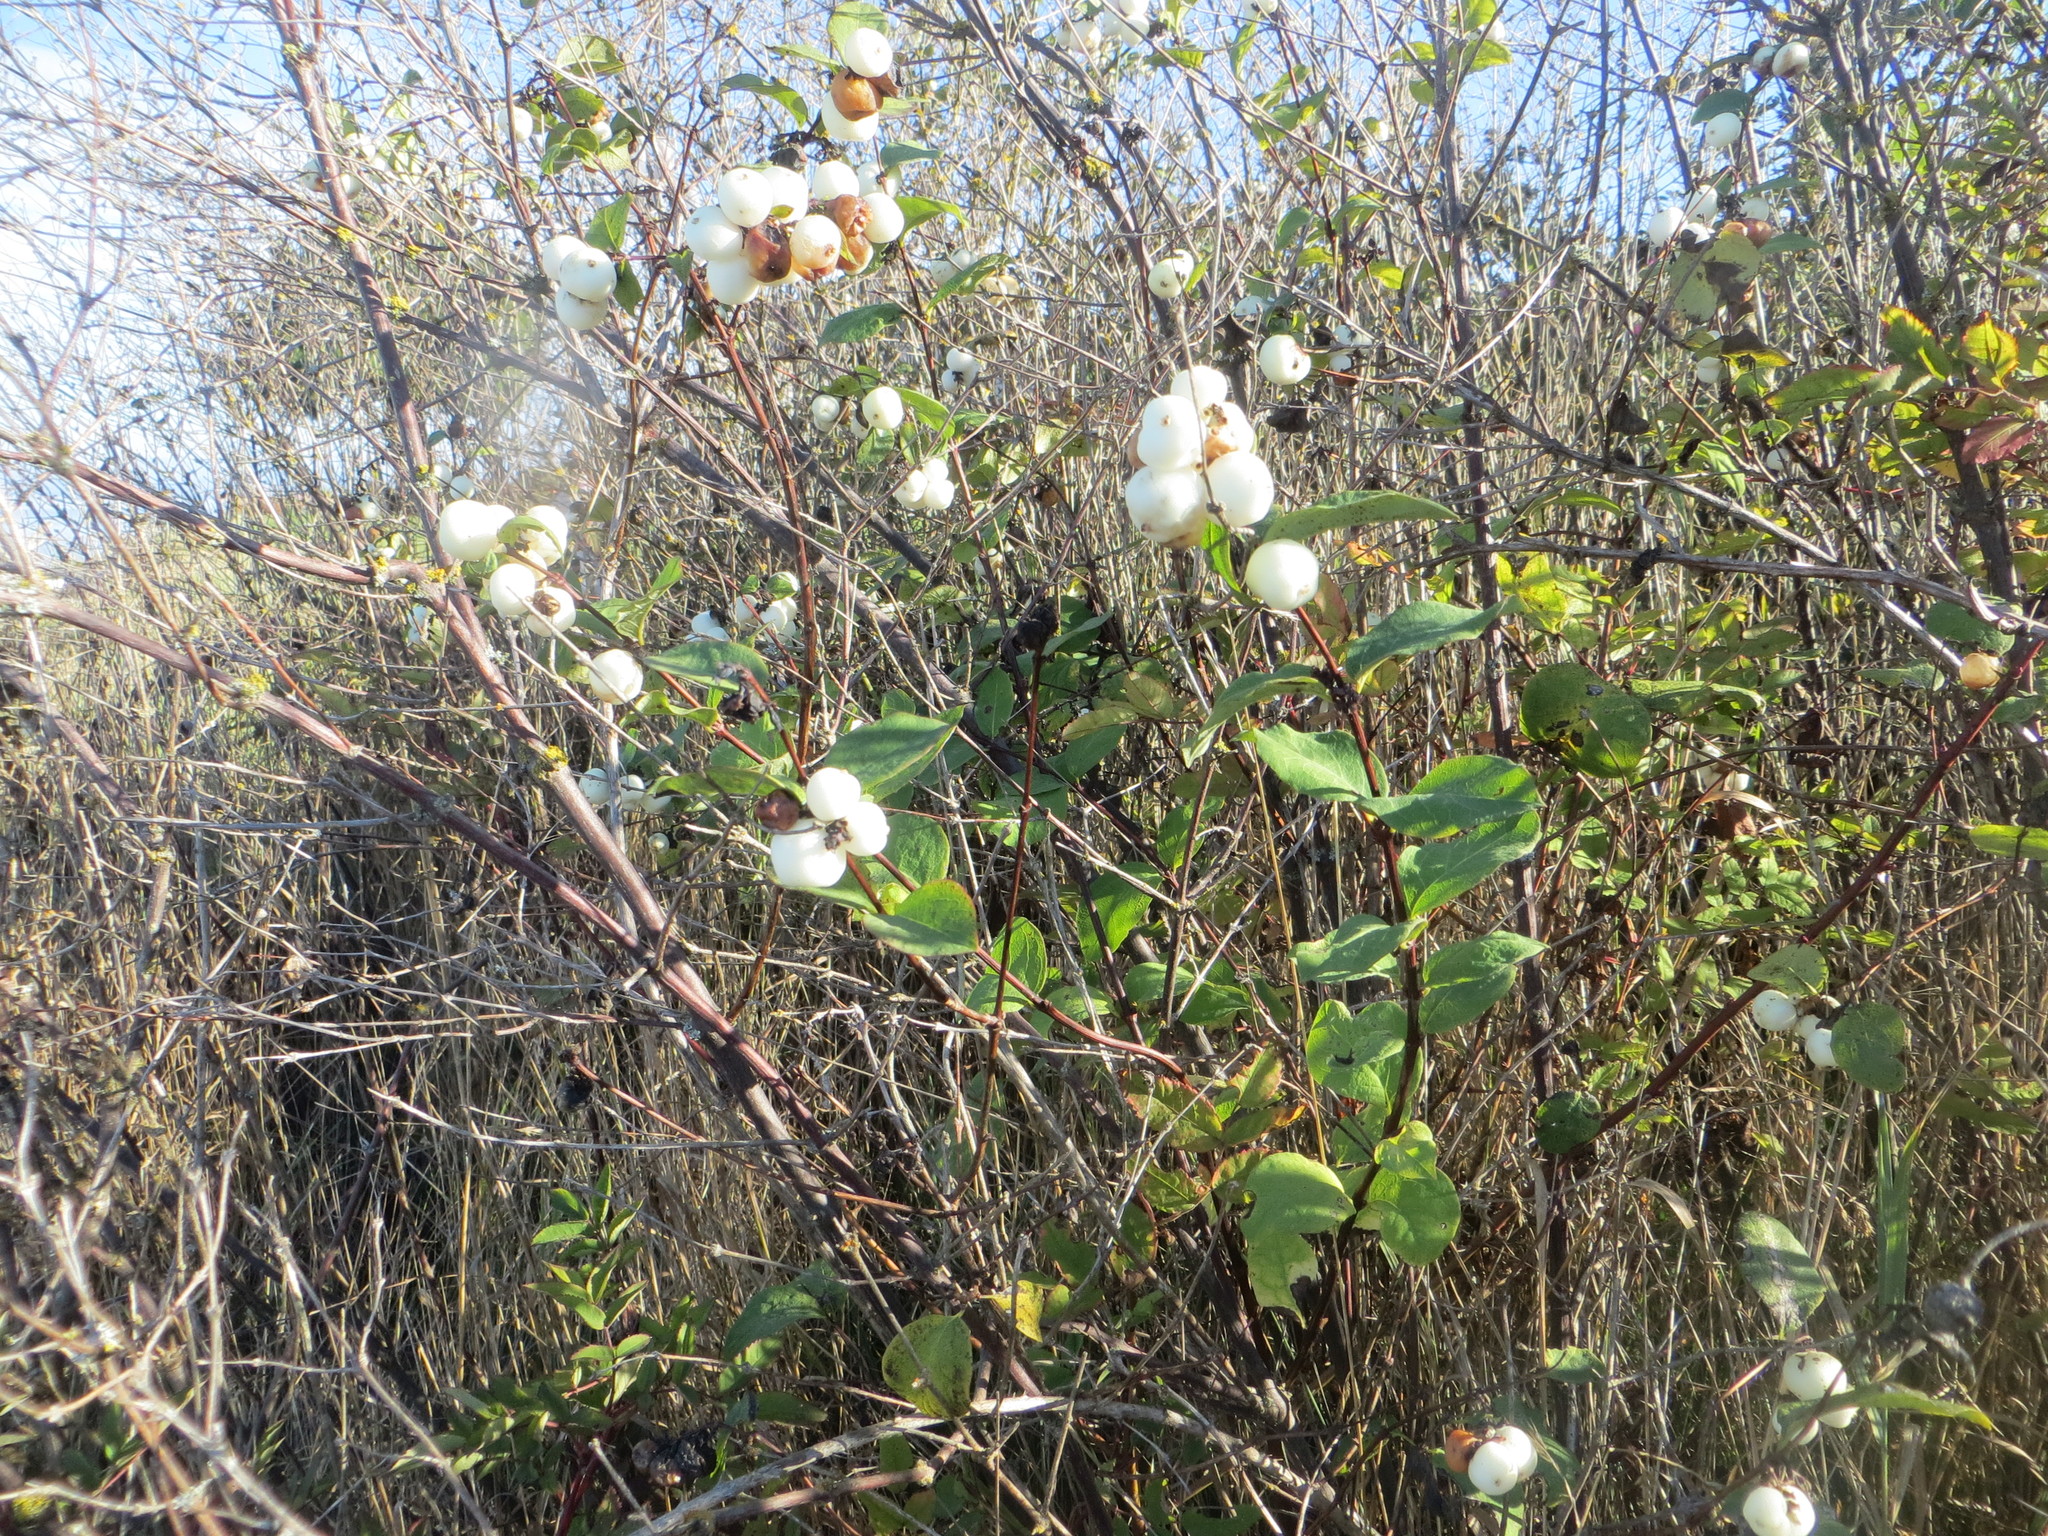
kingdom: Plantae
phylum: Tracheophyta
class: Magnoliopsida
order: Dipsacales
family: Caprifoliaceae
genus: Symphoricarpos
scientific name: Symphoricarpos albus
